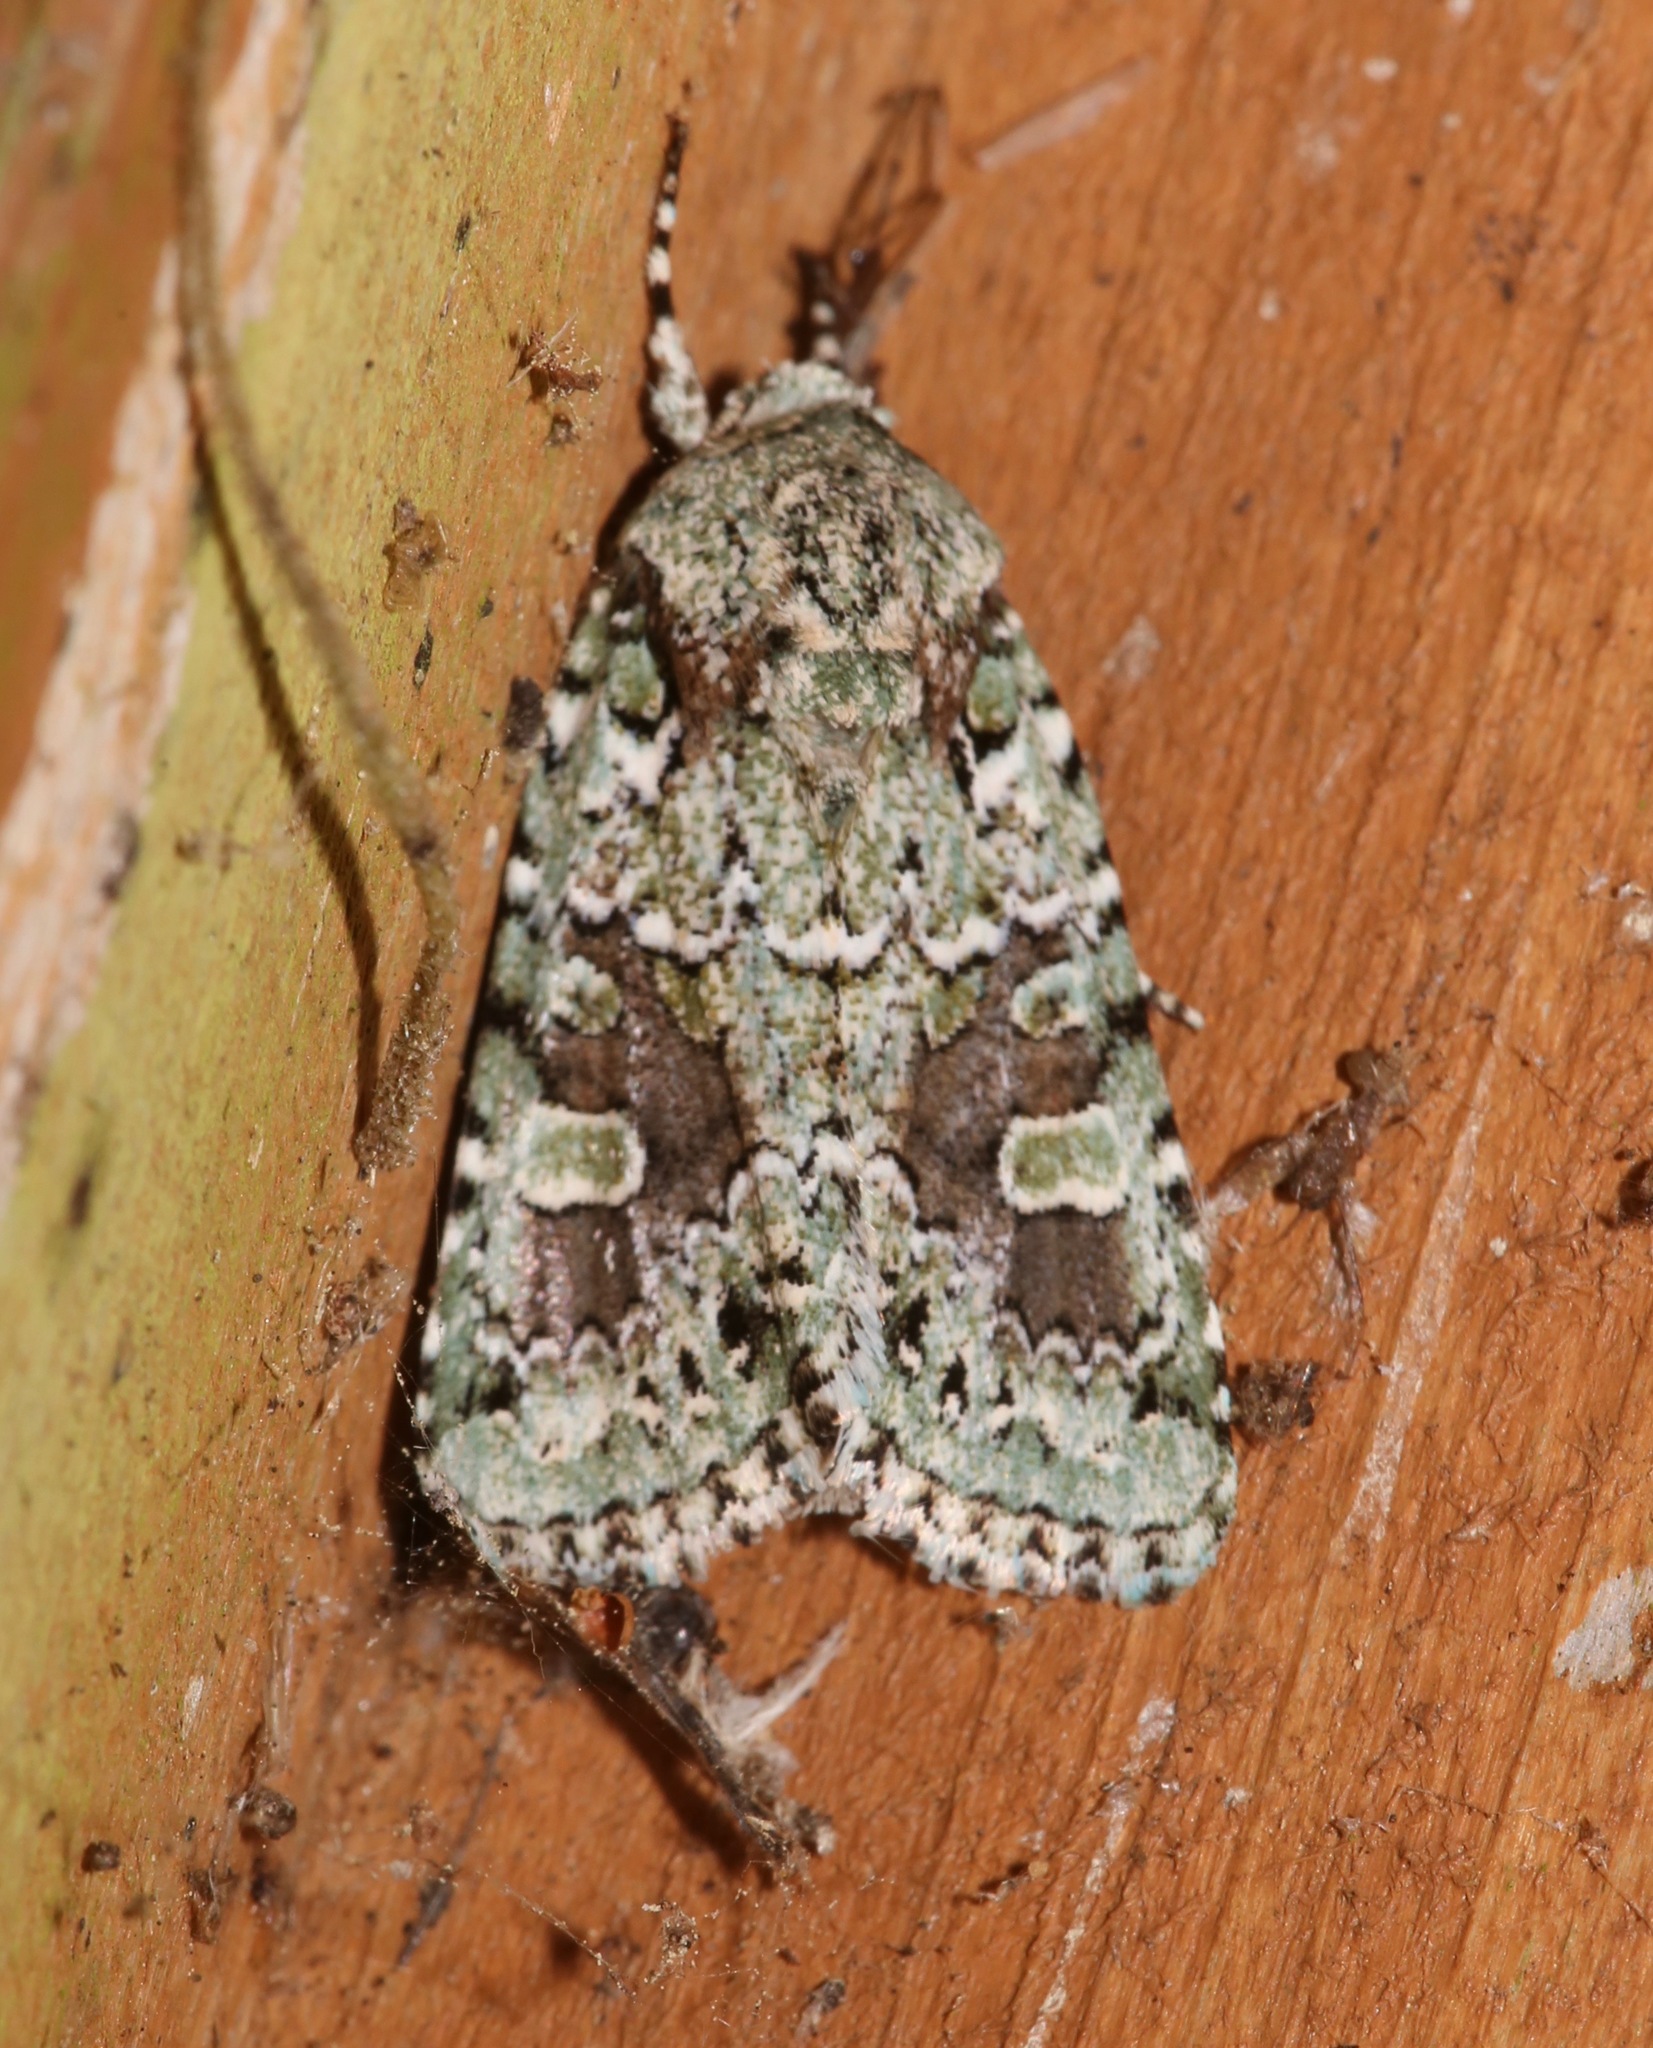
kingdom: Animalia
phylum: Arthropoda
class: Insecta
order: Lepidoptera
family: Noctuidae
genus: Lacinipolia
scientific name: Lacinipolia laudabilis
